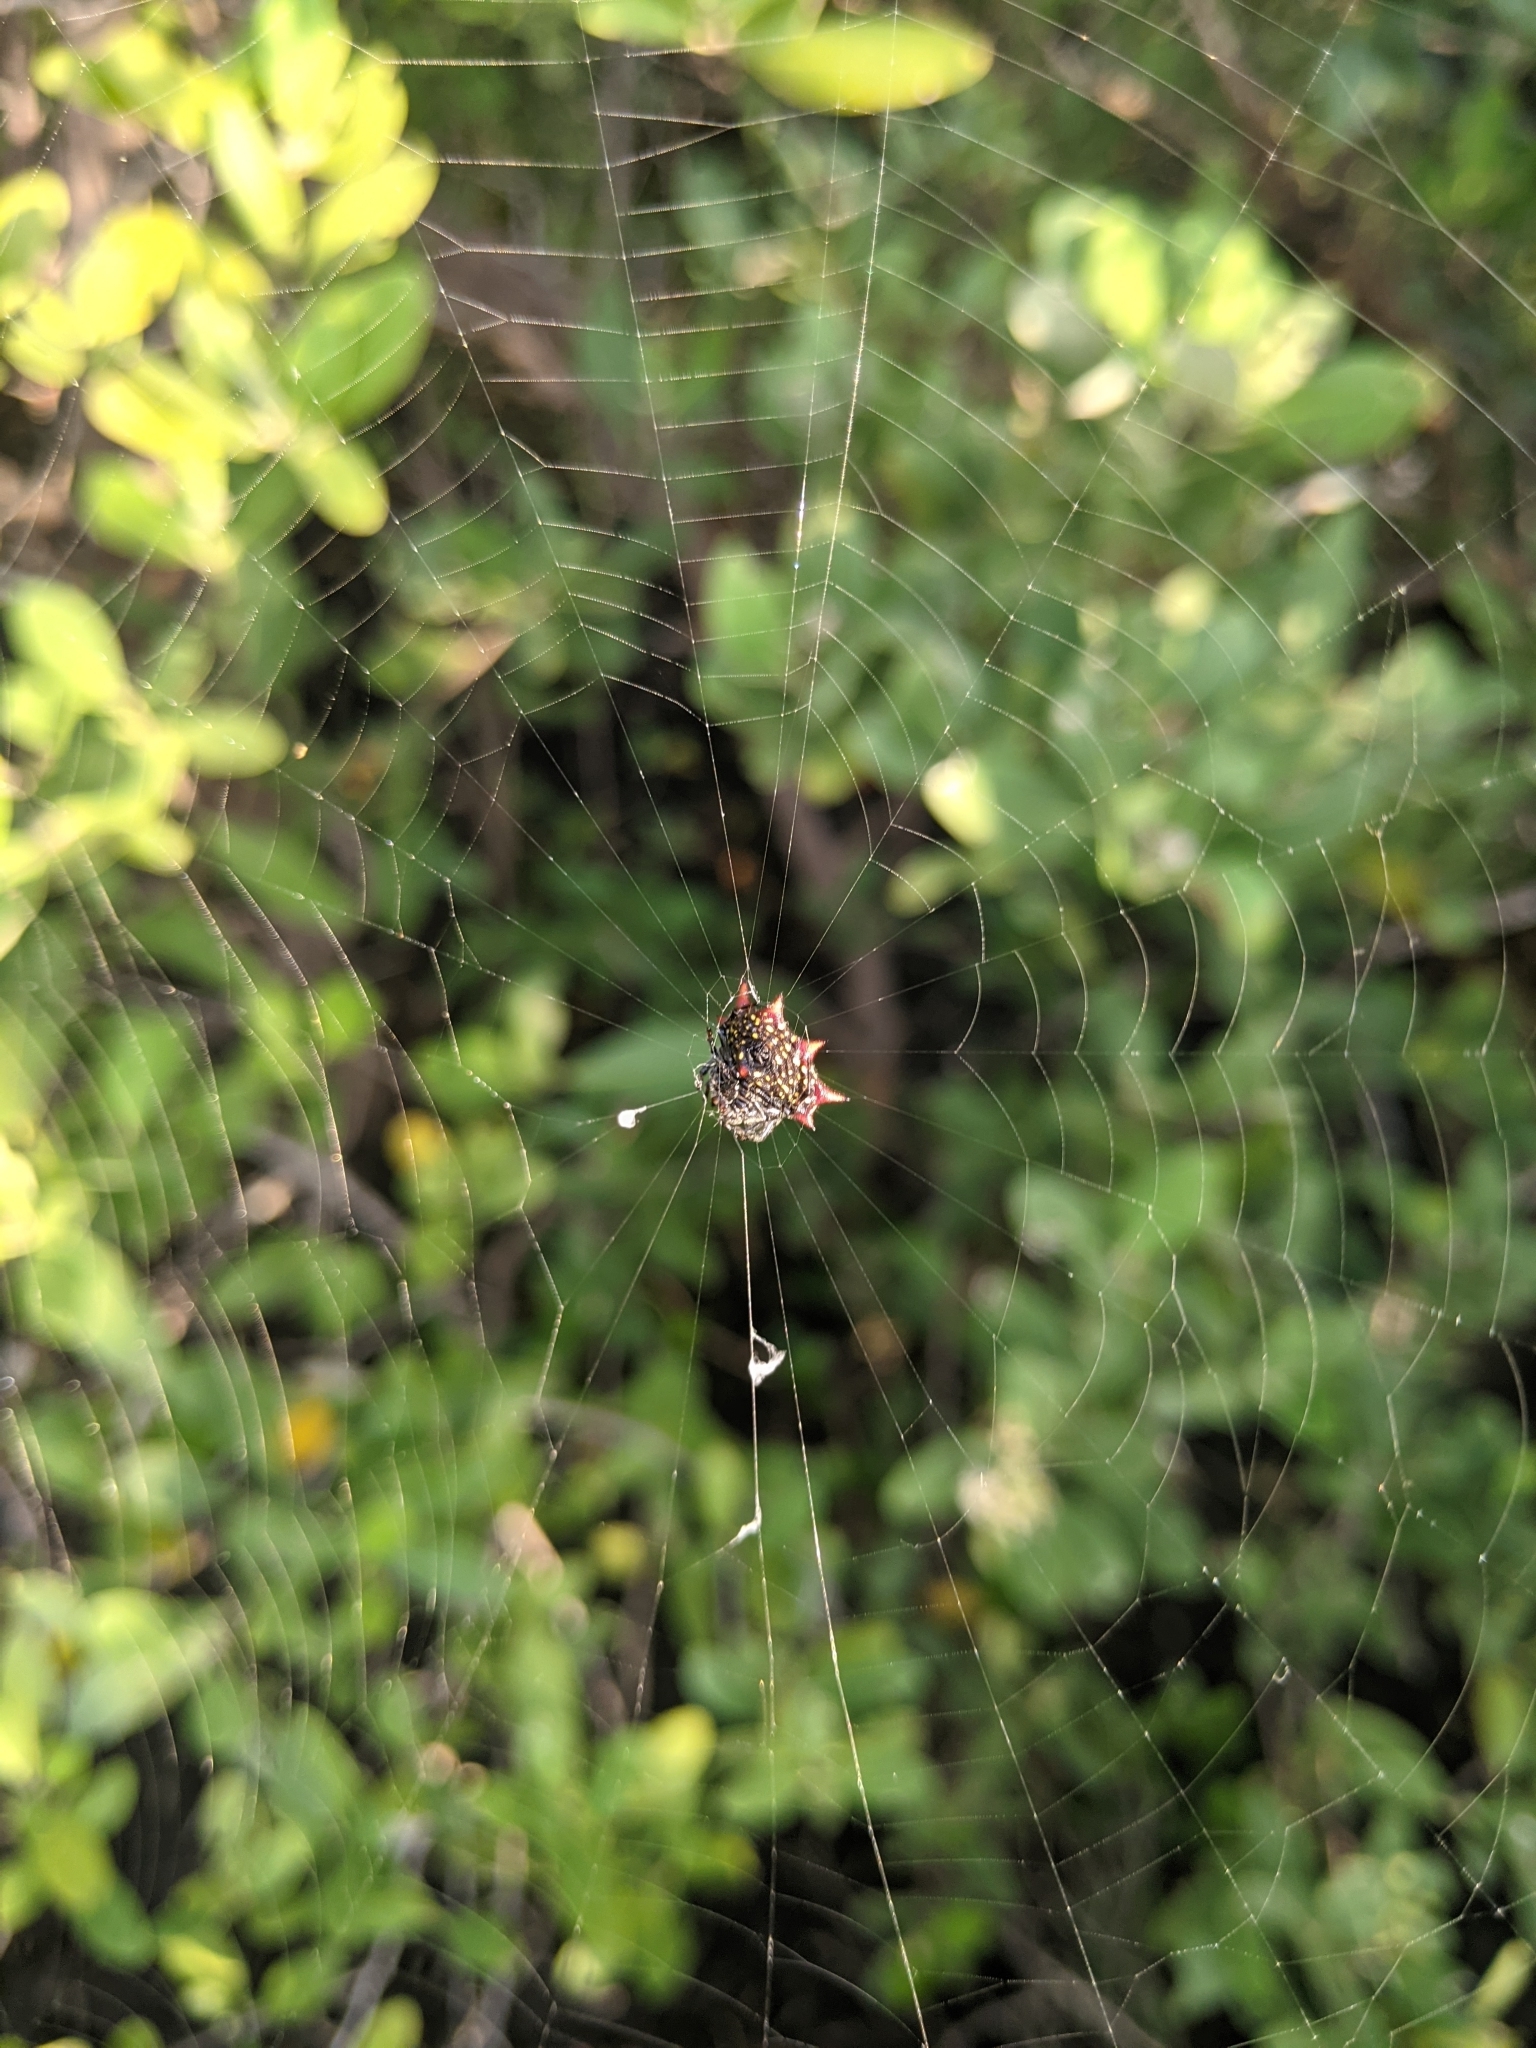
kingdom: Animalia
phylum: Arthropoda
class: Arachnida
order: Araneae
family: Araneidae
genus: Gasteracantha
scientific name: Gasteracantha cancriformis
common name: Orb weavers
